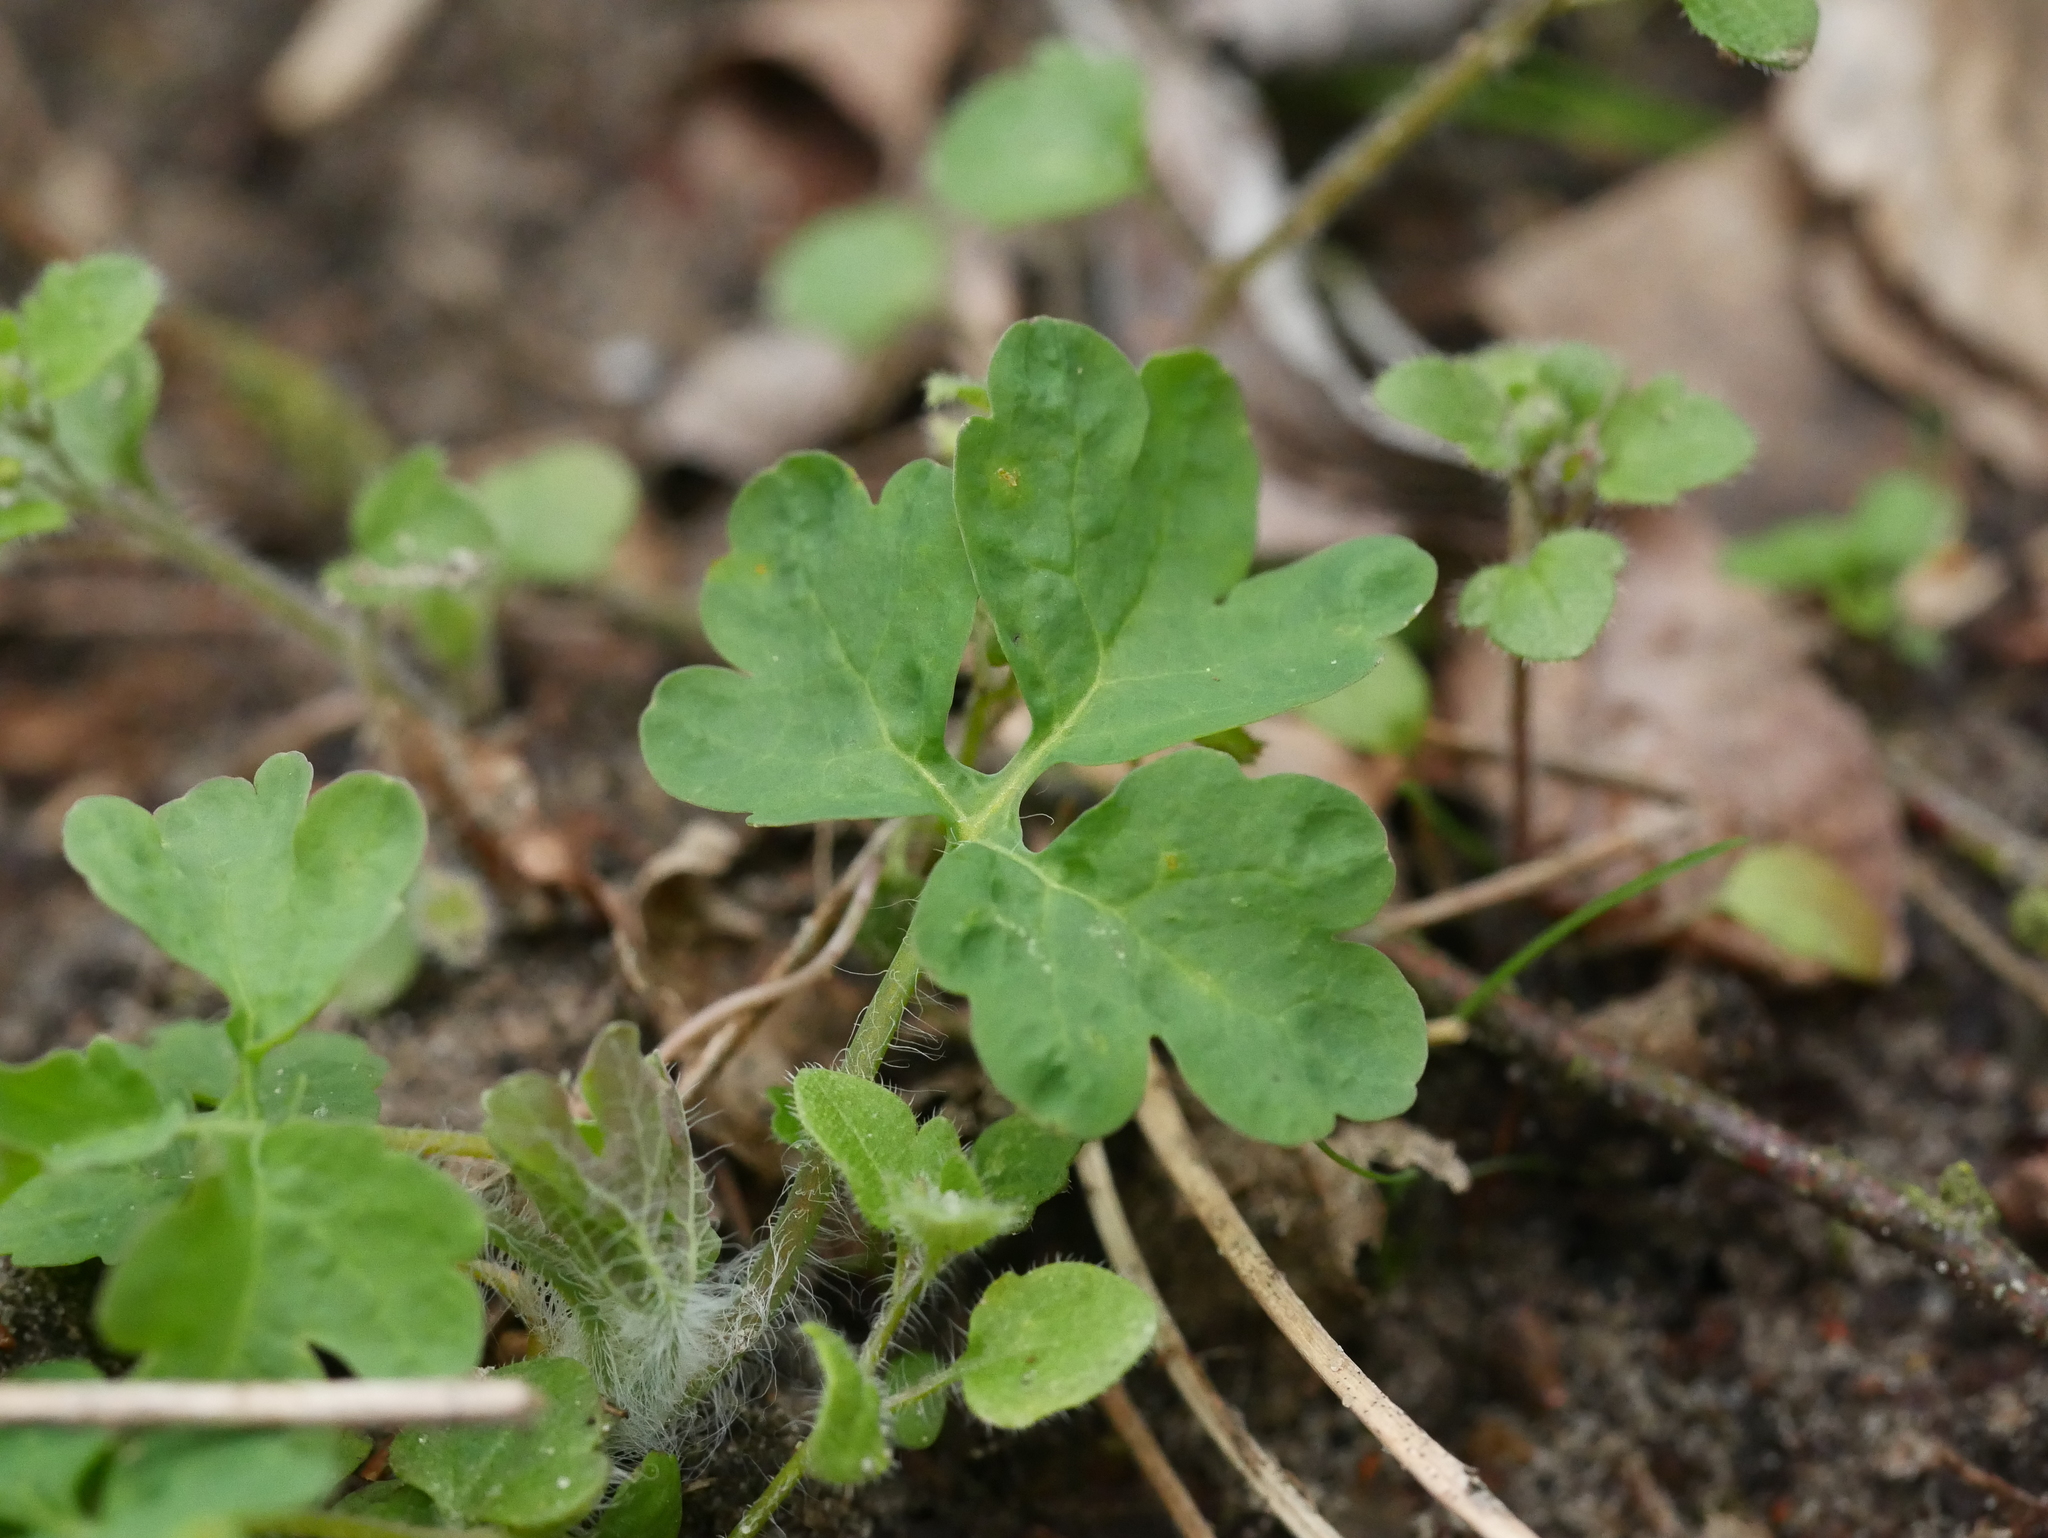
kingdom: Plantae
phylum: Tracheophyta
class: Magnoliopsida
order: Ranunculales
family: Papaveraceae
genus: Chelidonium
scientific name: Chelidonium majus
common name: Greater celandine
